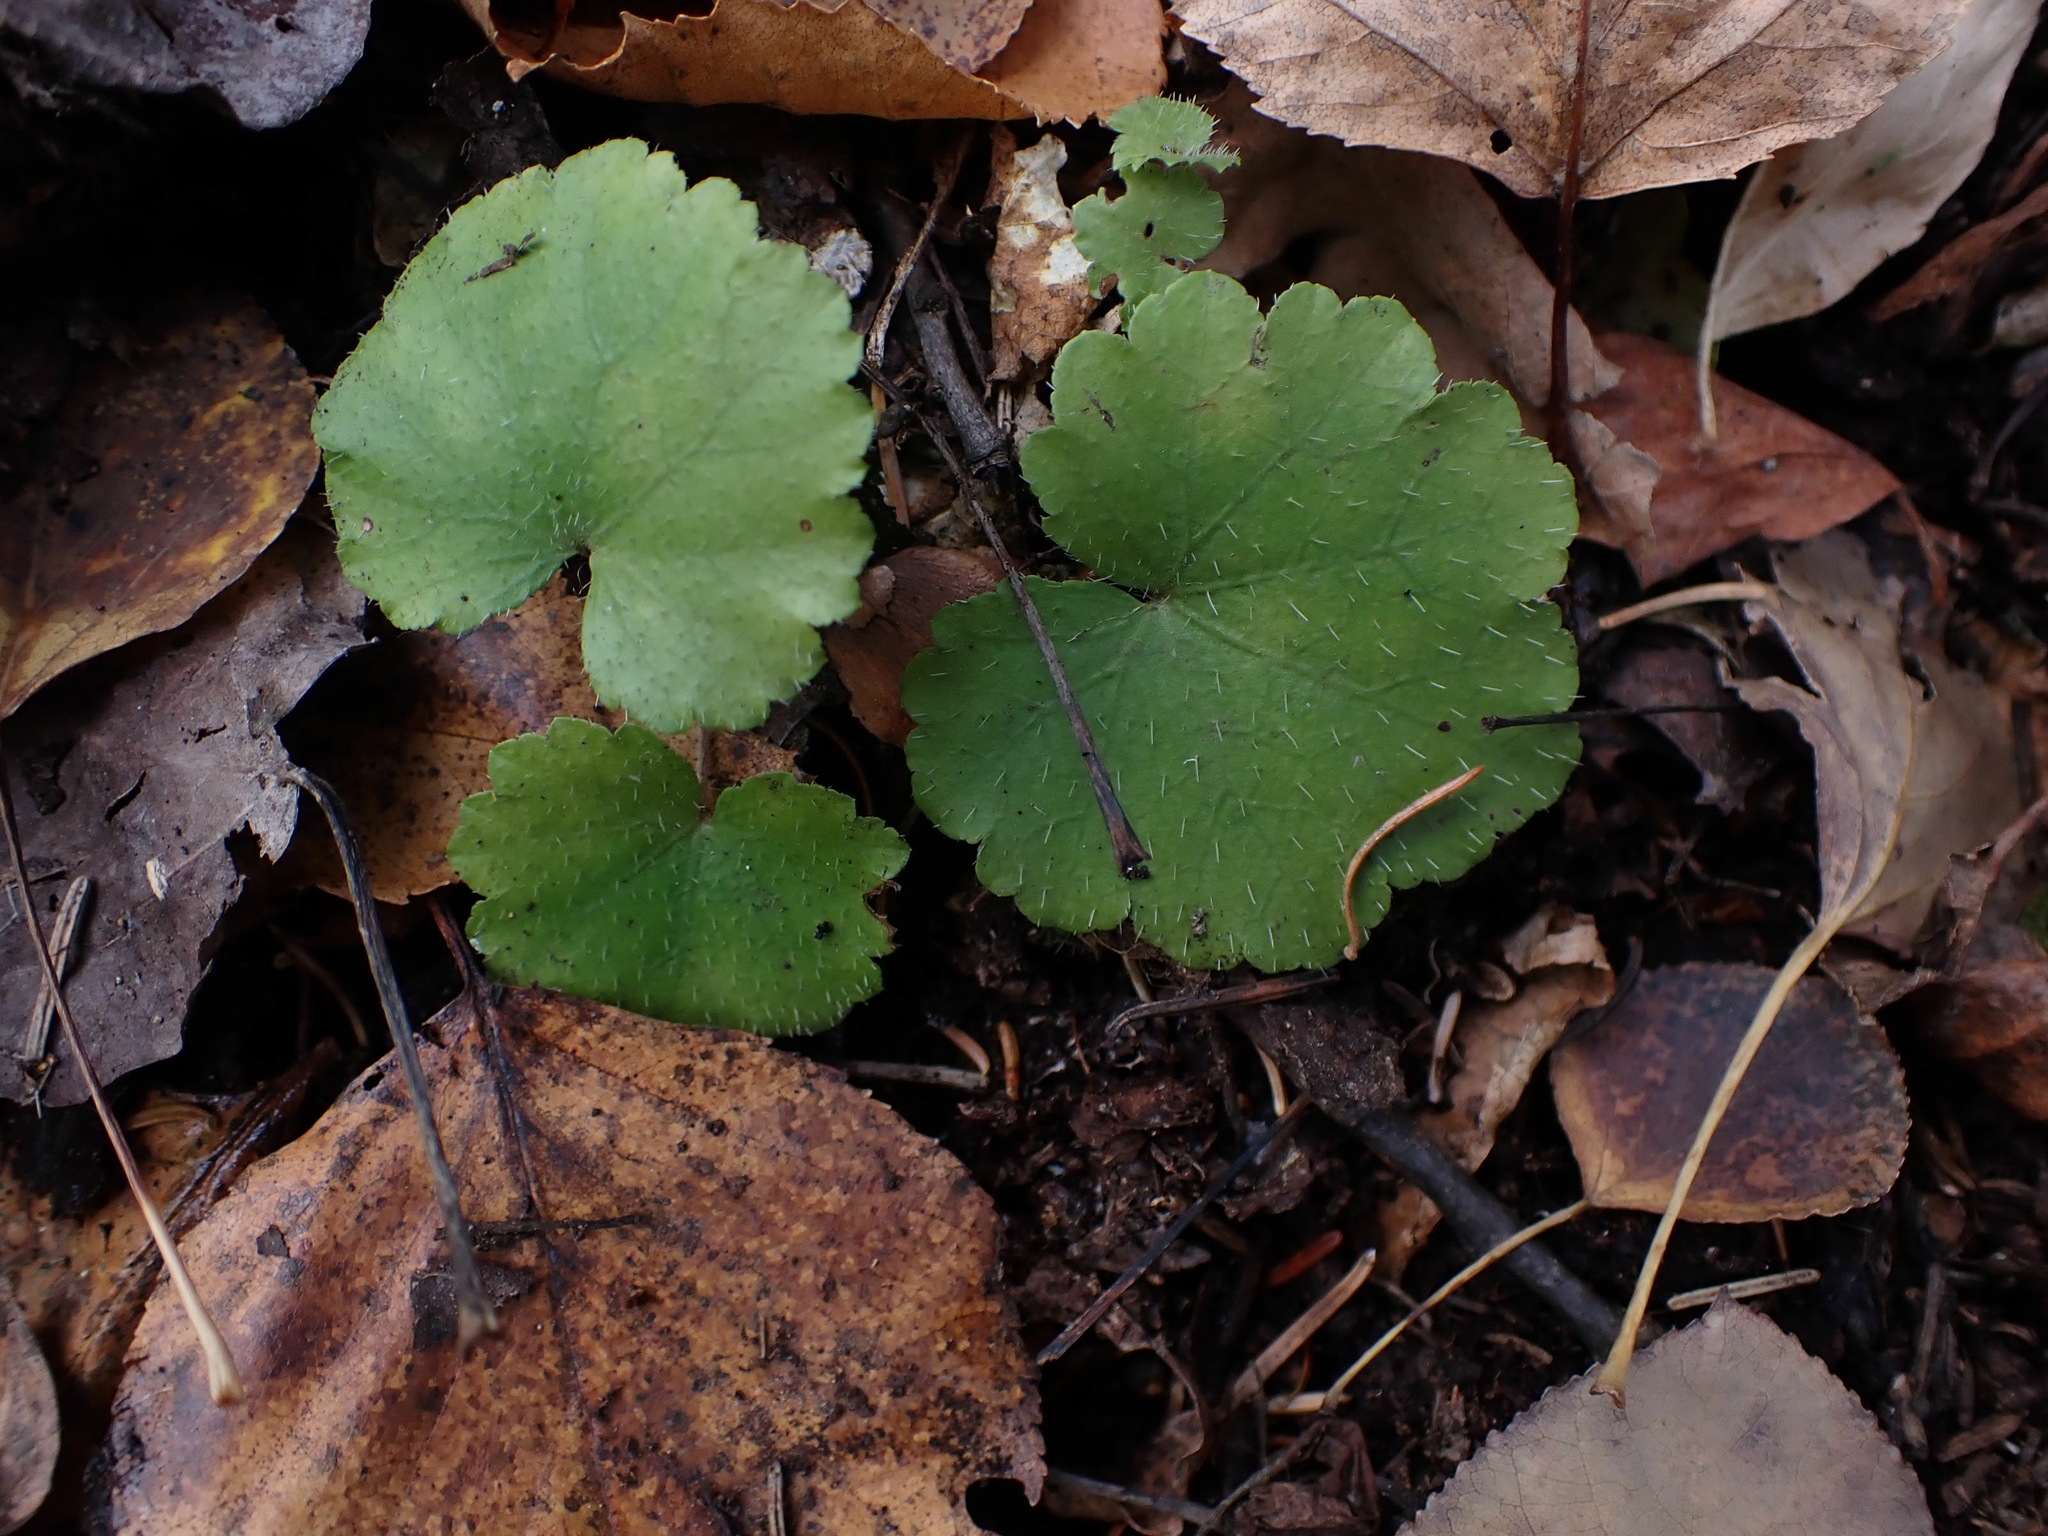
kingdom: Plantae
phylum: Tracheophyta
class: Magnoliopsida
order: Saxifragales
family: Saxifragaceae
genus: Mitella
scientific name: Mitella nuda
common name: Bare-stemmed bishop's-cap
